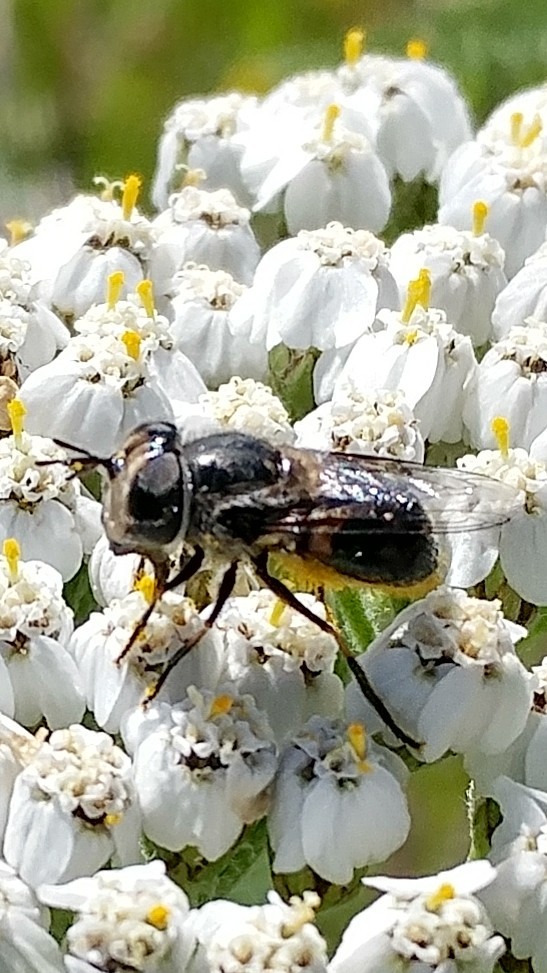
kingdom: Animalia
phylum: Arthropoda
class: Insecta
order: Diptera
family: Syrphidae
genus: Copestylum
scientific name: Copestylum lentum
